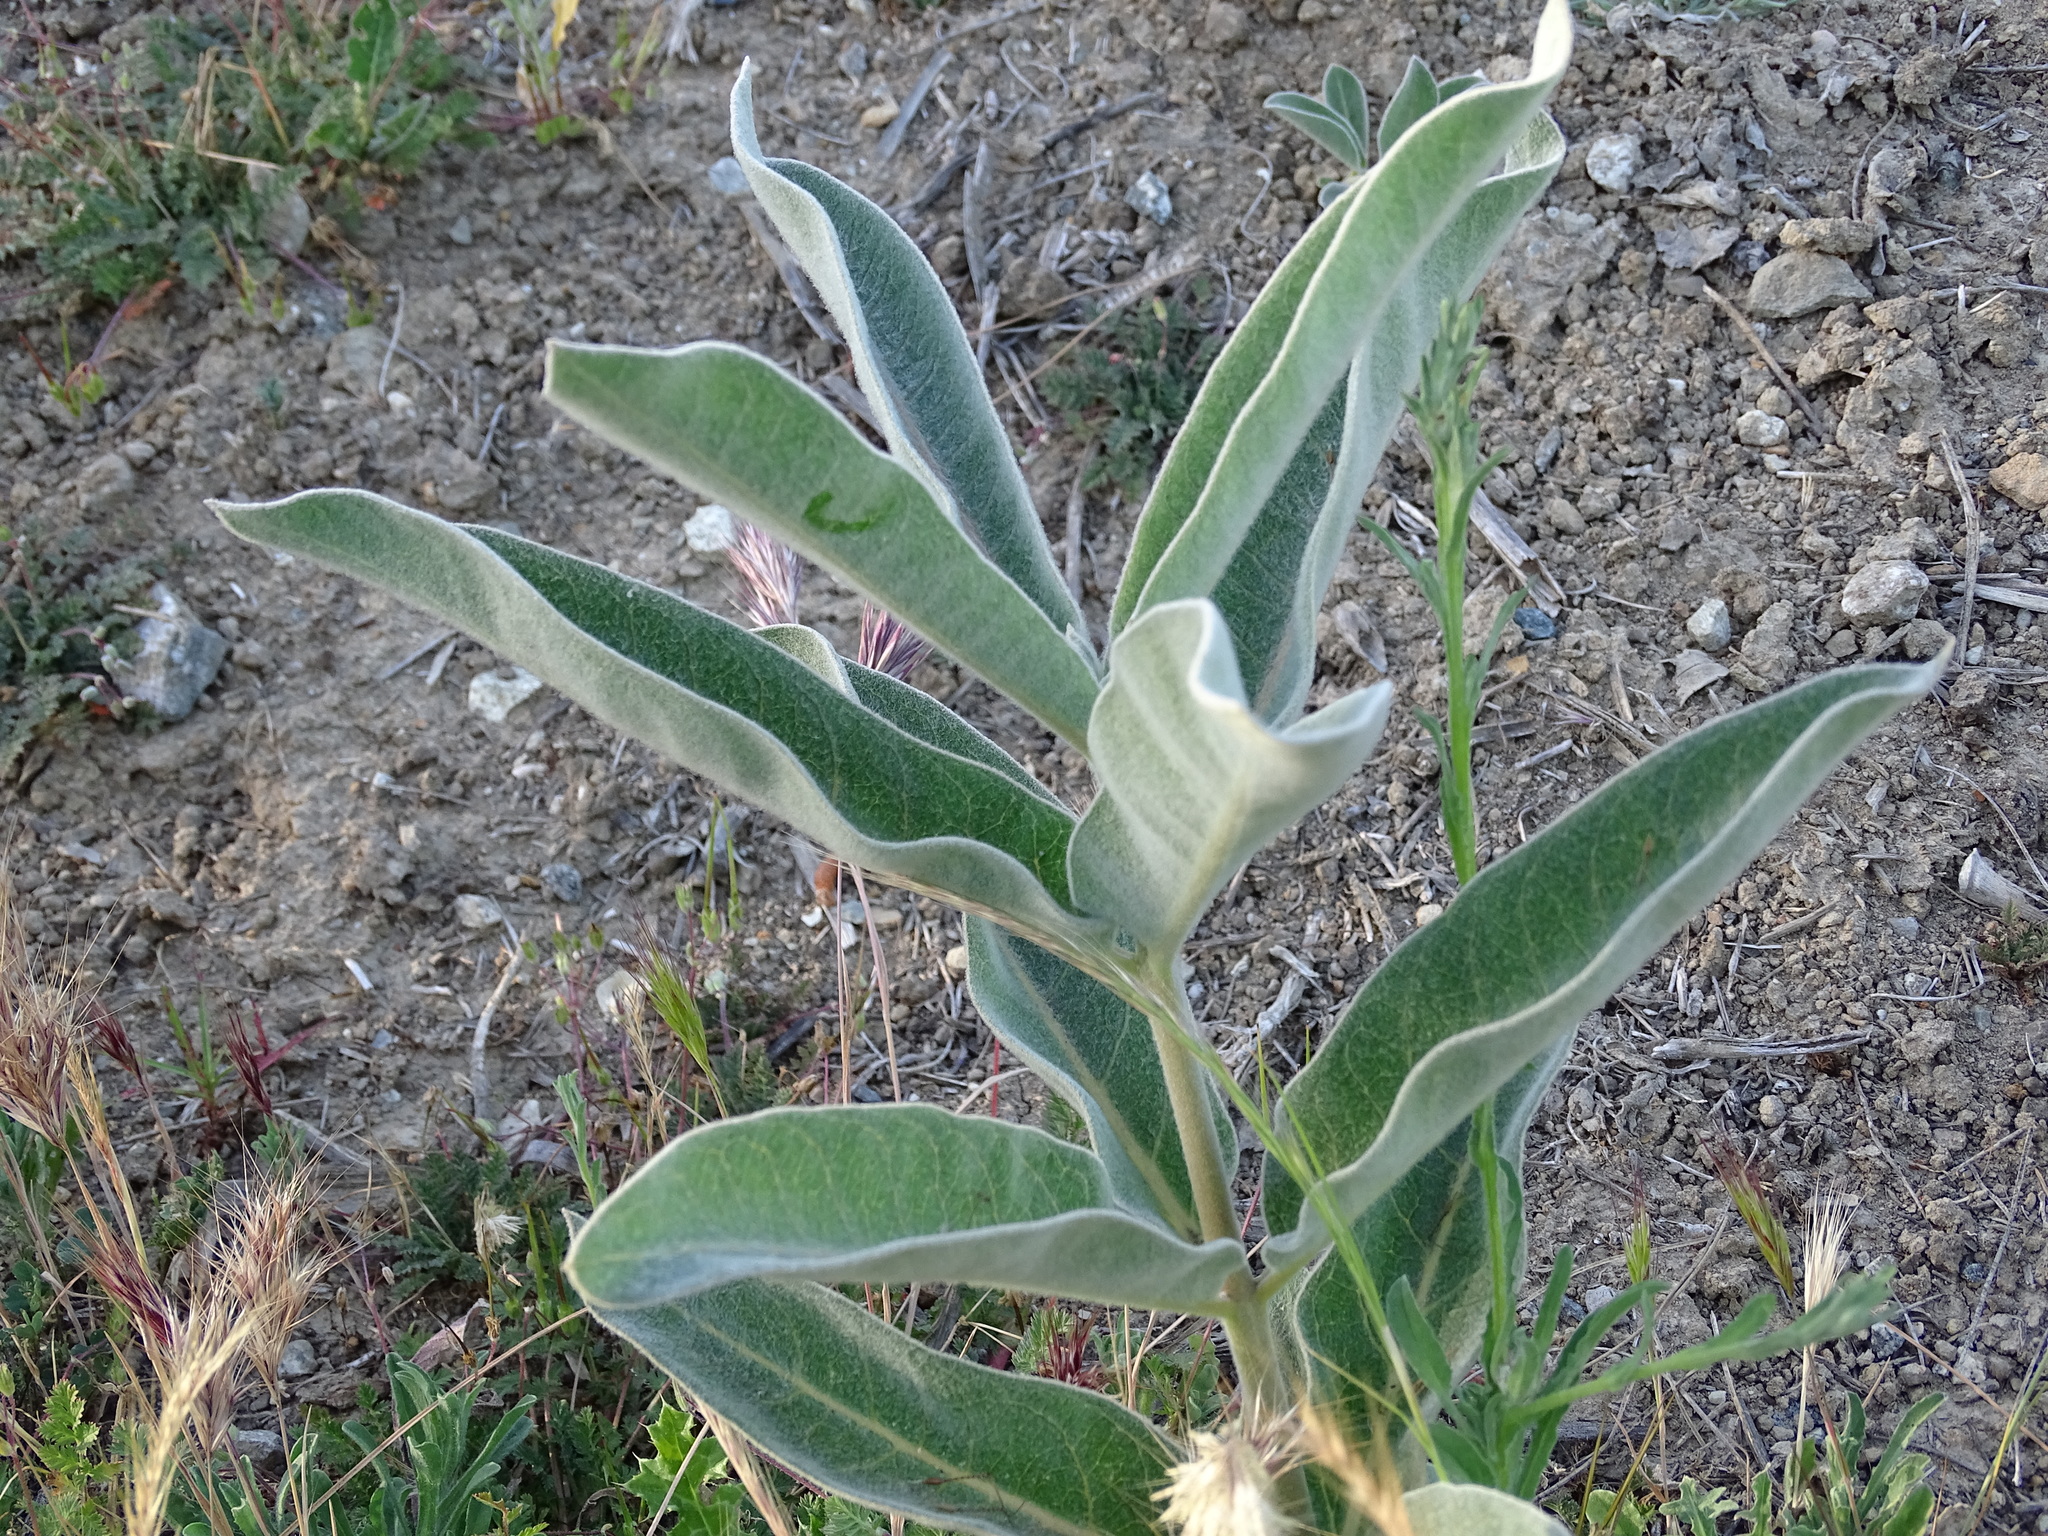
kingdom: Plantae
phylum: Tracheophyta
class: Magnoliopsida
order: Gentianales
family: Apocynaceae
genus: Asclepias
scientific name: Asclepias eriocarpa
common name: Indian milkweed
